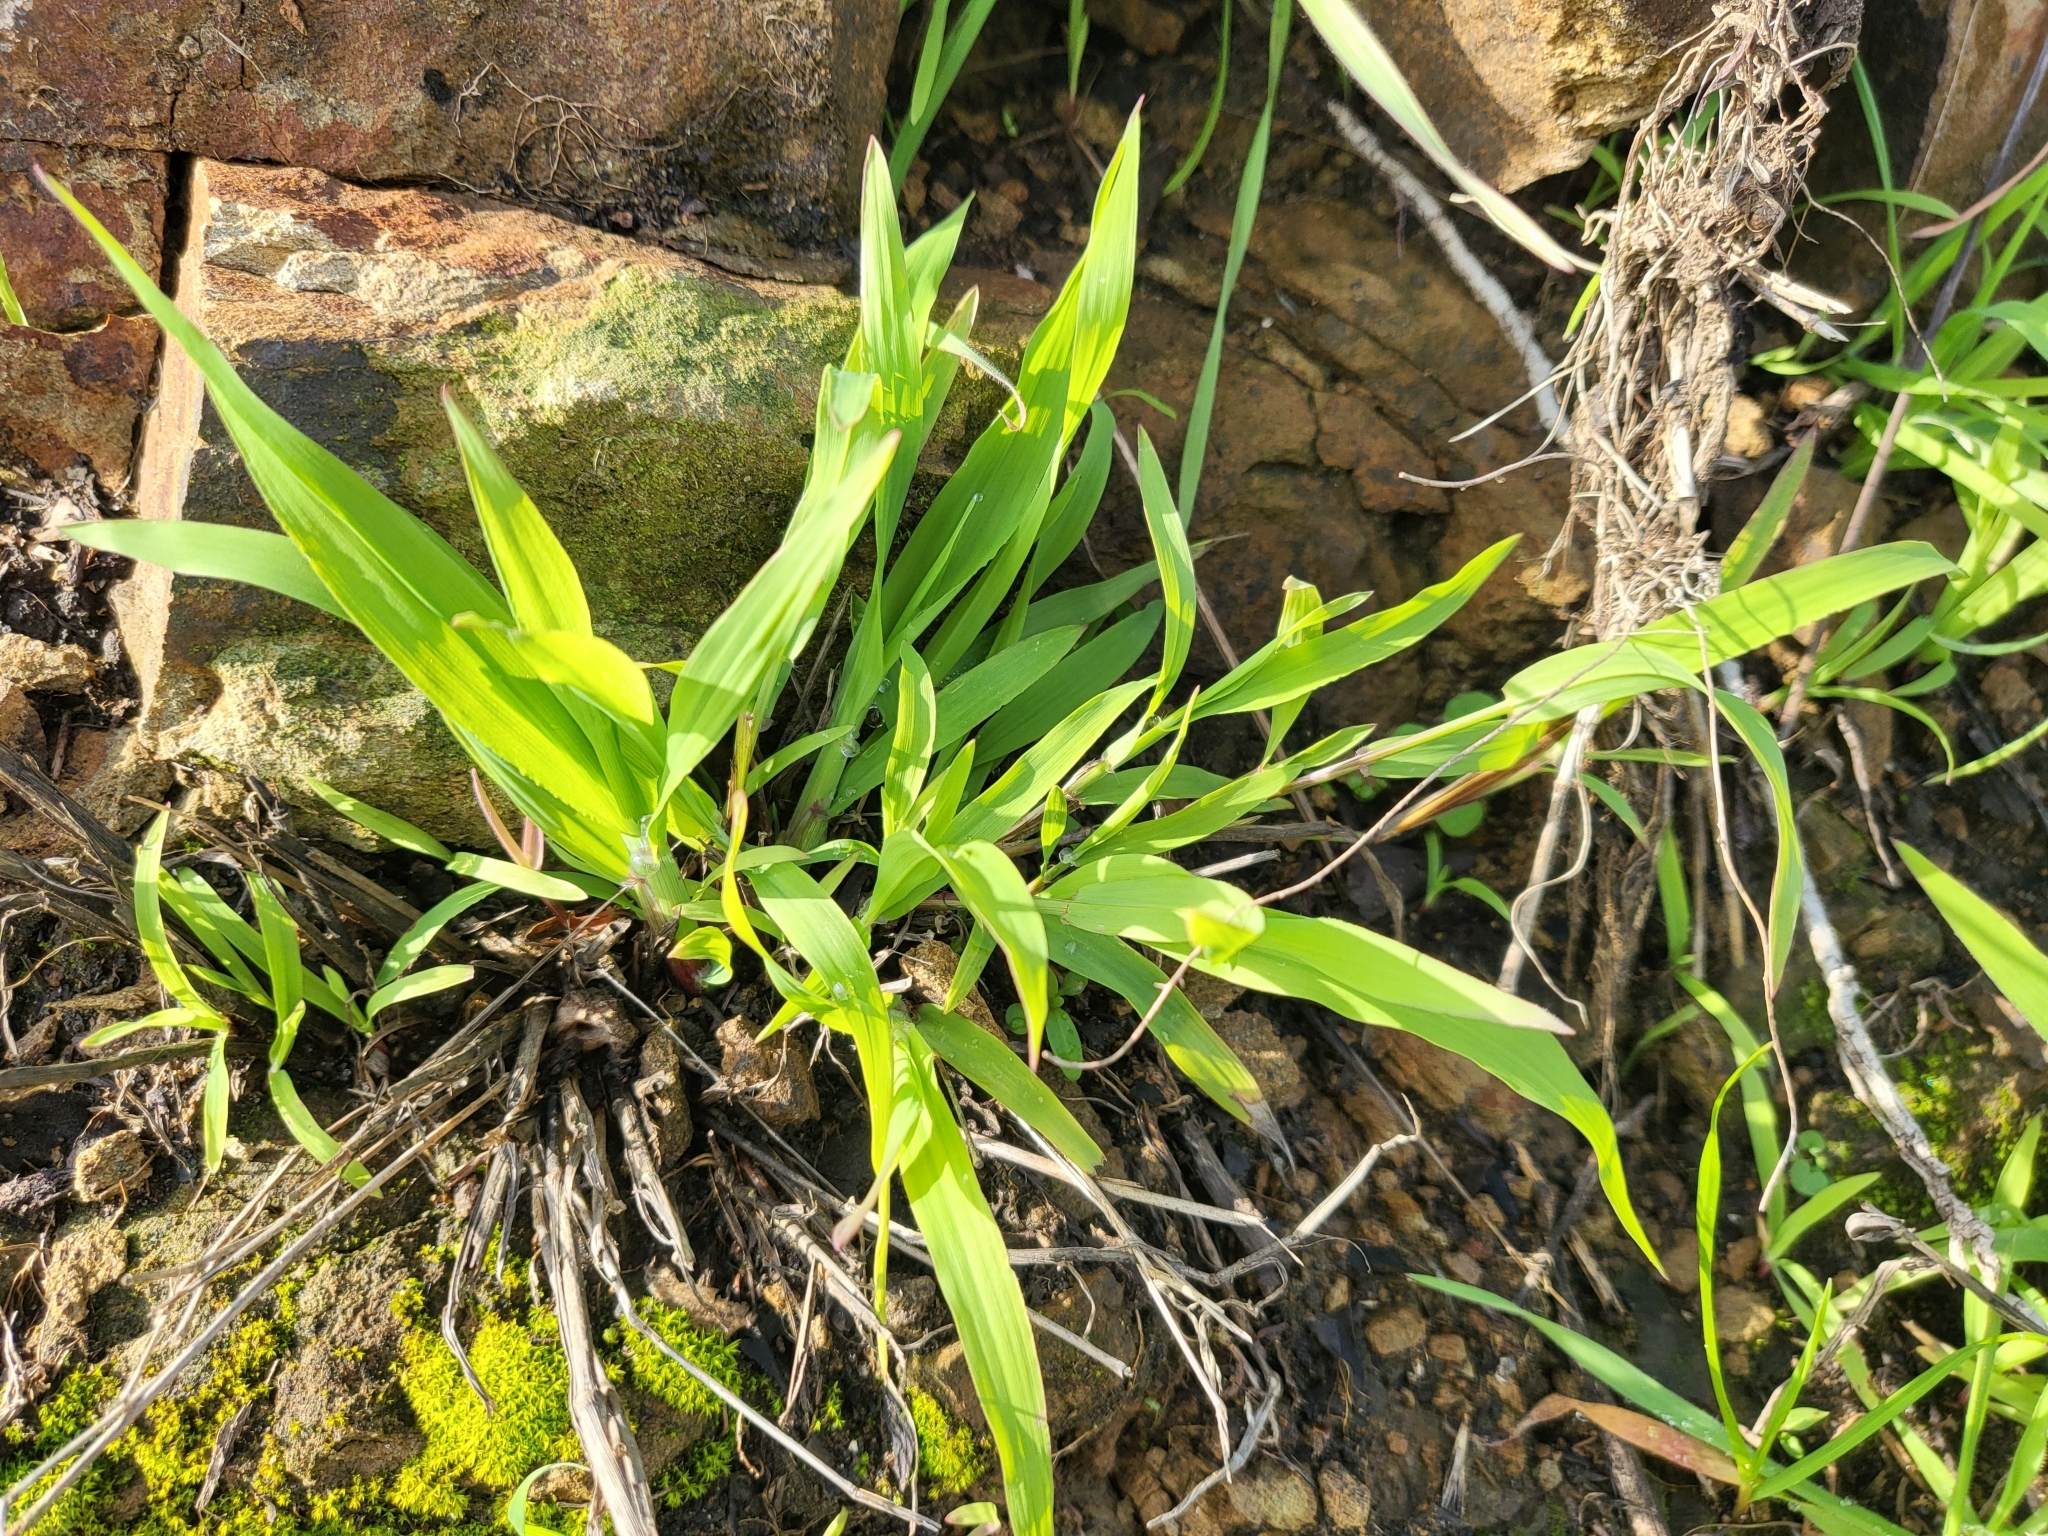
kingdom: Plantae
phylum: Tracheophyta
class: Liliopsida
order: Poales
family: Poaceae
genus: Ehrharta
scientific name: Ehrharta erecta
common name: Panic veldtgrass
